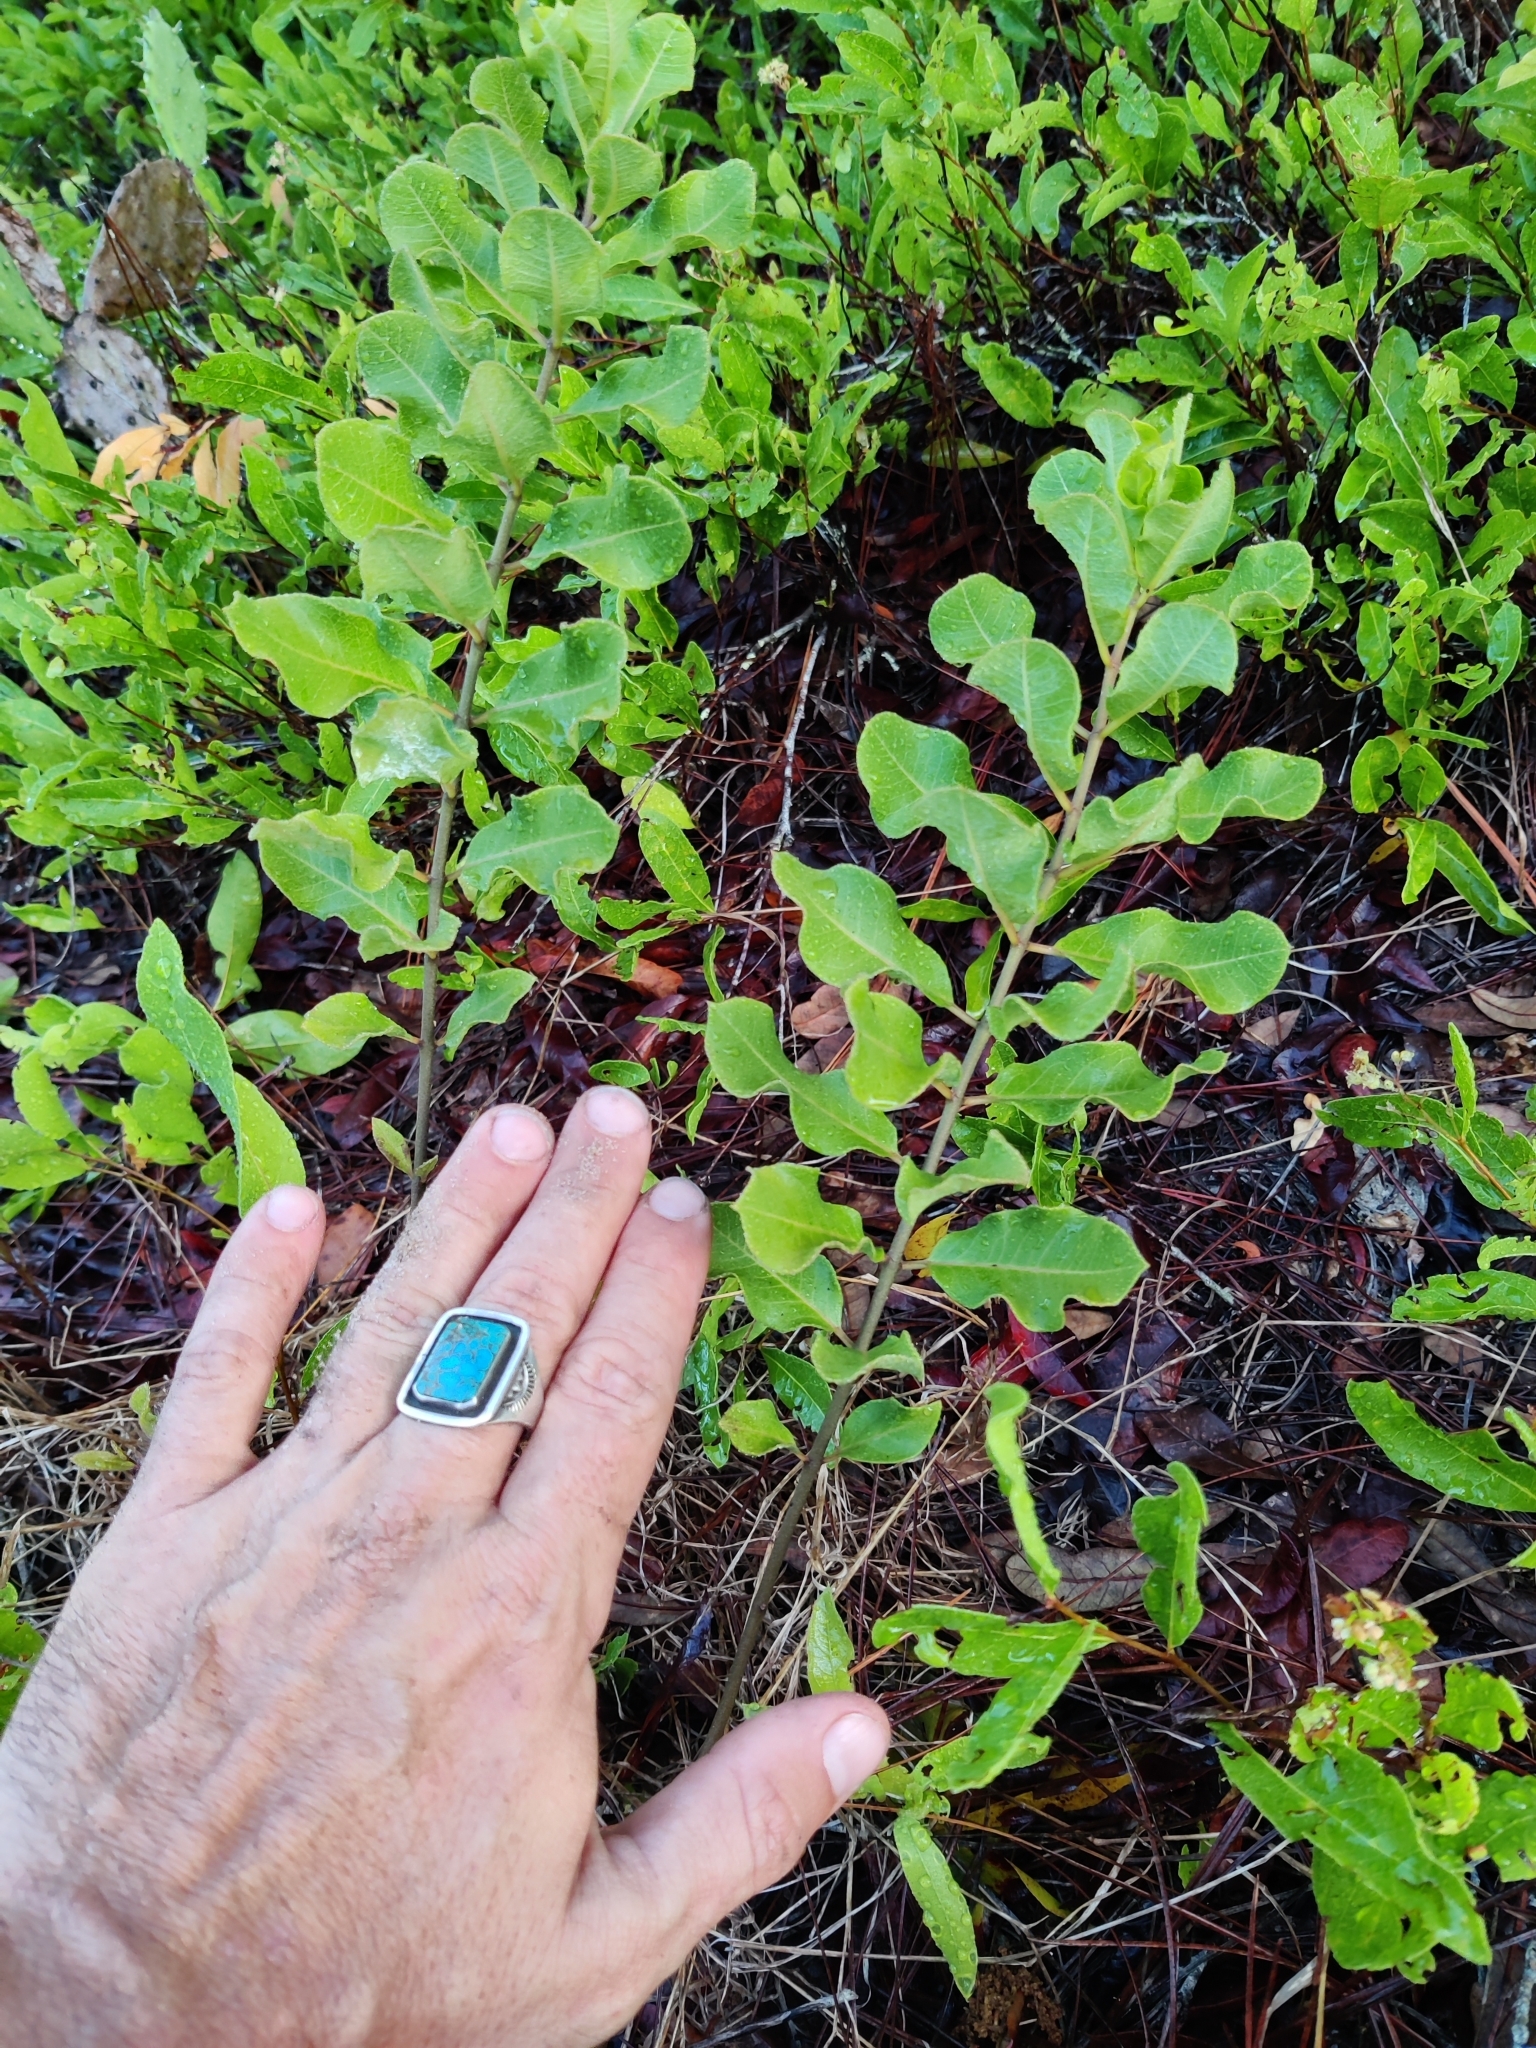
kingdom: Plantae
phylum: Tracheophyta
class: Magnoliopsida
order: Gentianales
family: Apocynaceae
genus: Asclepias
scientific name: Asclepias tomentosa
